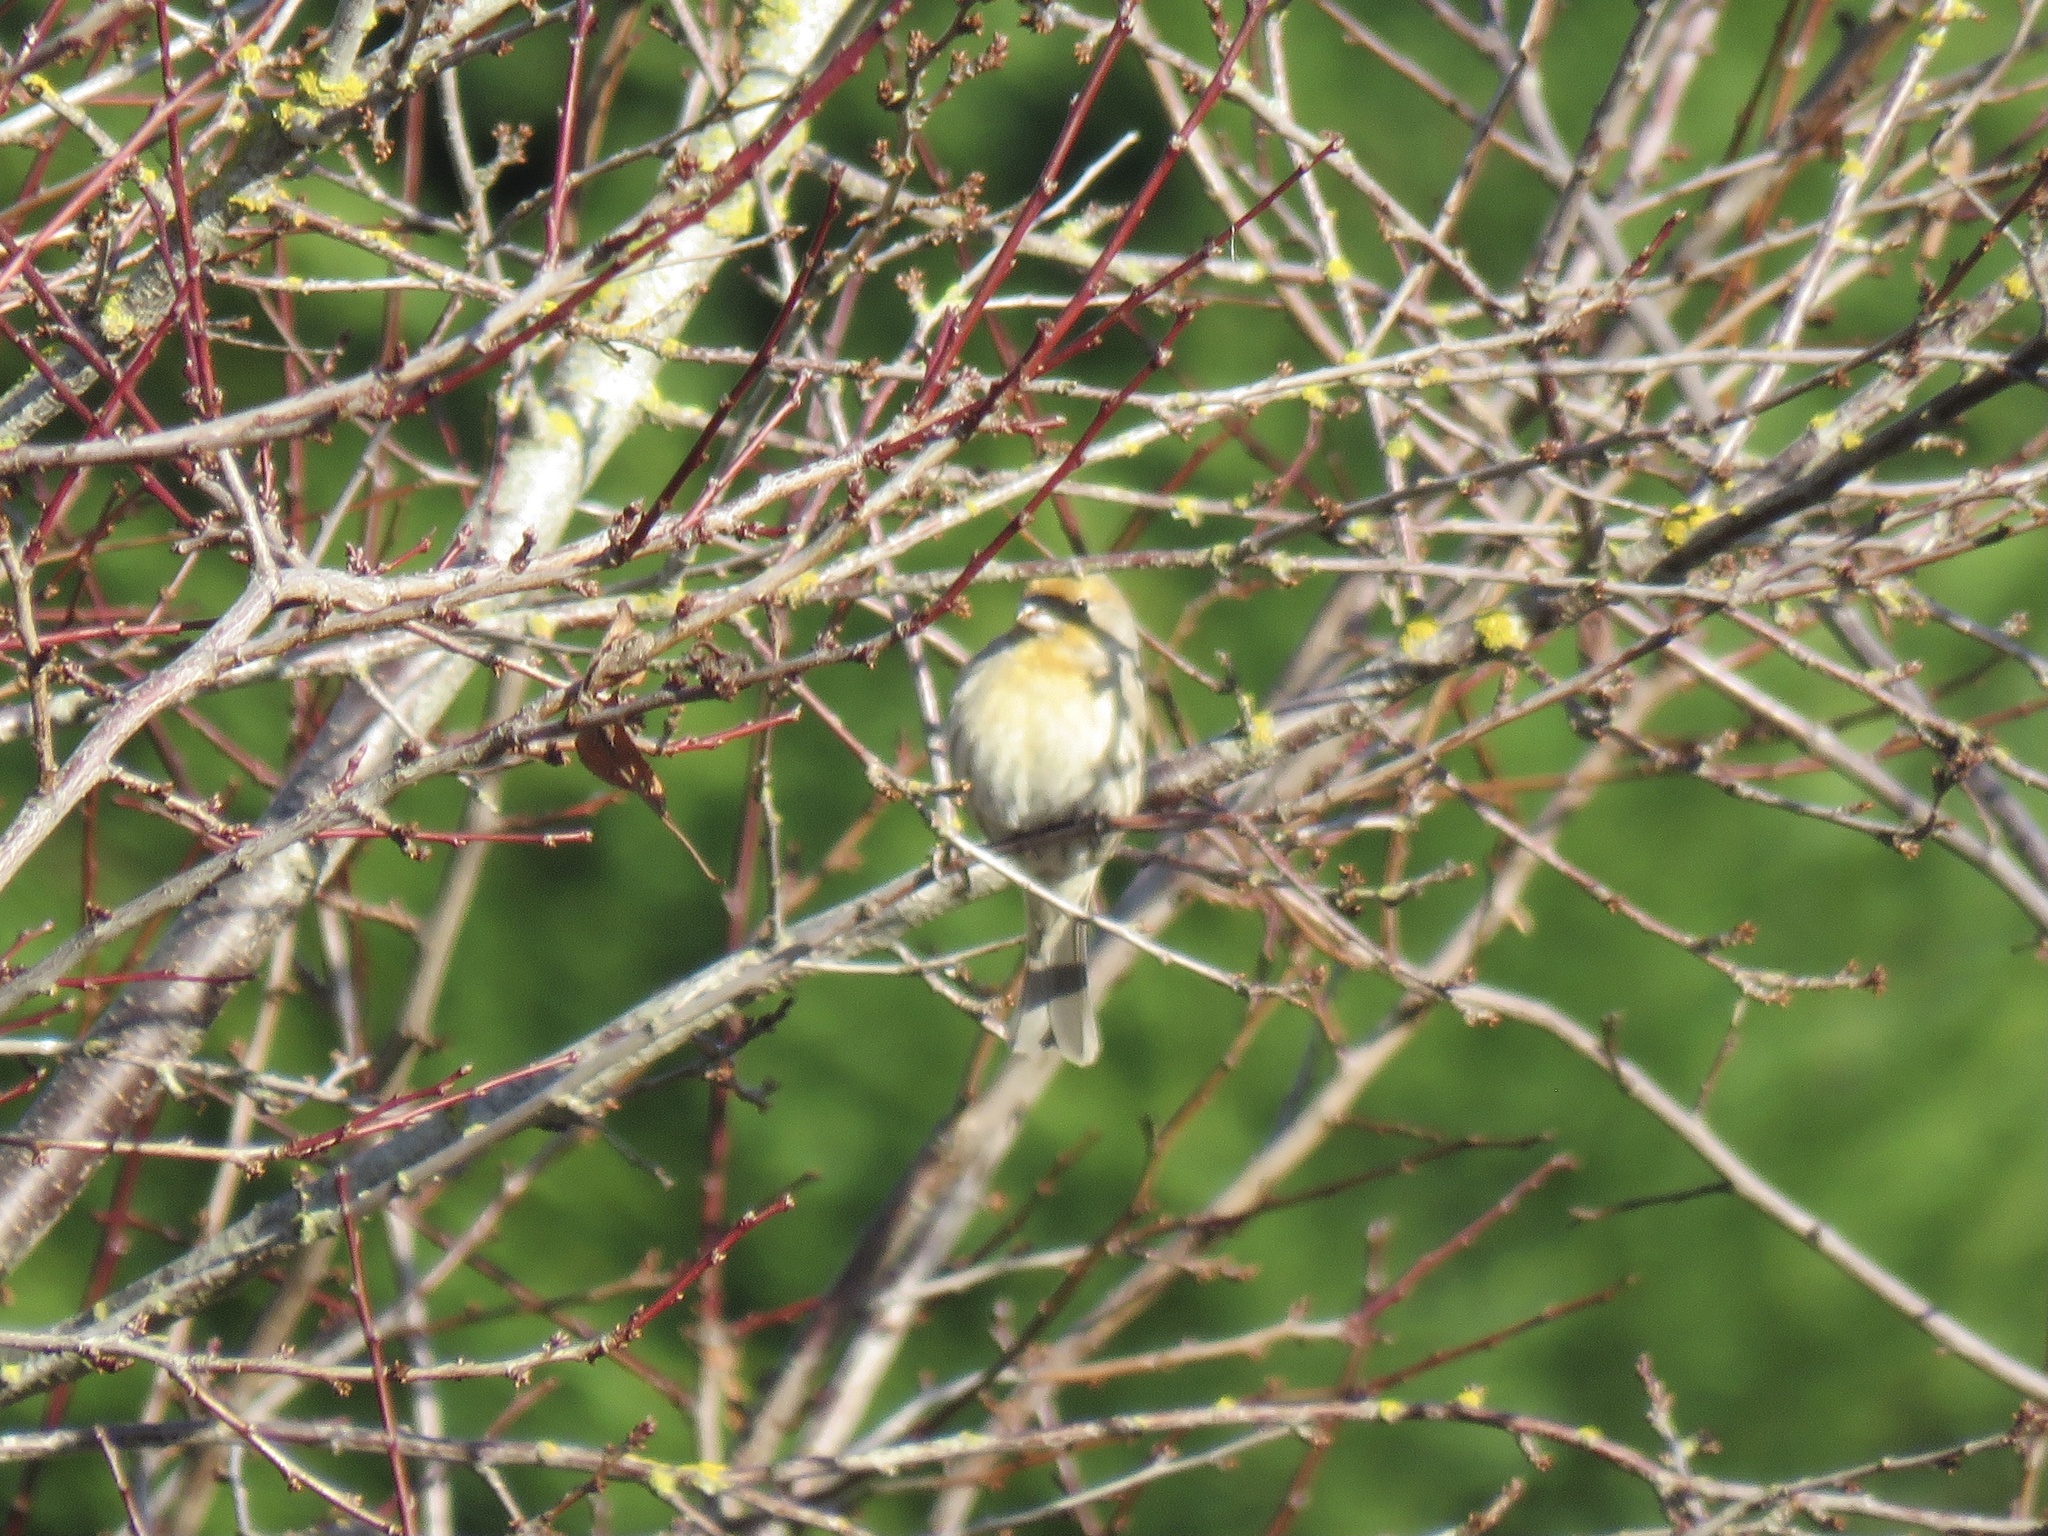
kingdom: Animalia
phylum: Chordata
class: Aves
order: Passeriformes
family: Fringillidae
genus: Haemorhous
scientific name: Haemorhous mexicanus
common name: House finch
